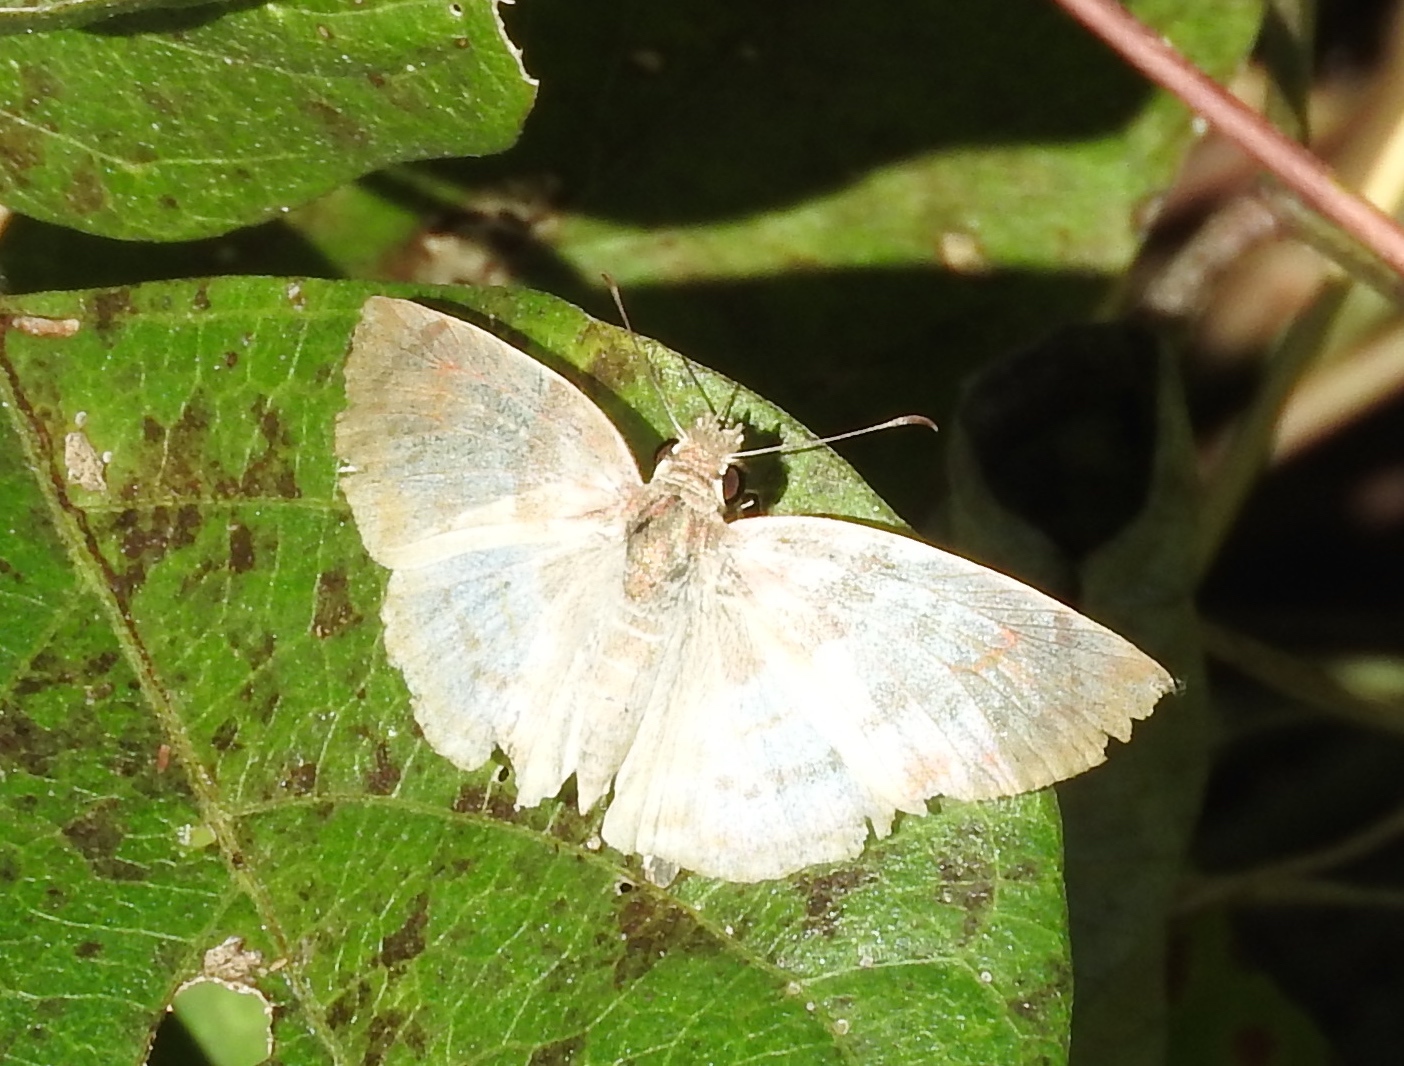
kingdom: Animalia
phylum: Arthropoda
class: Insecta
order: Lepidoptera
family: Hesperiidae
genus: Mylon
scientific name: Mylon pelopidas
